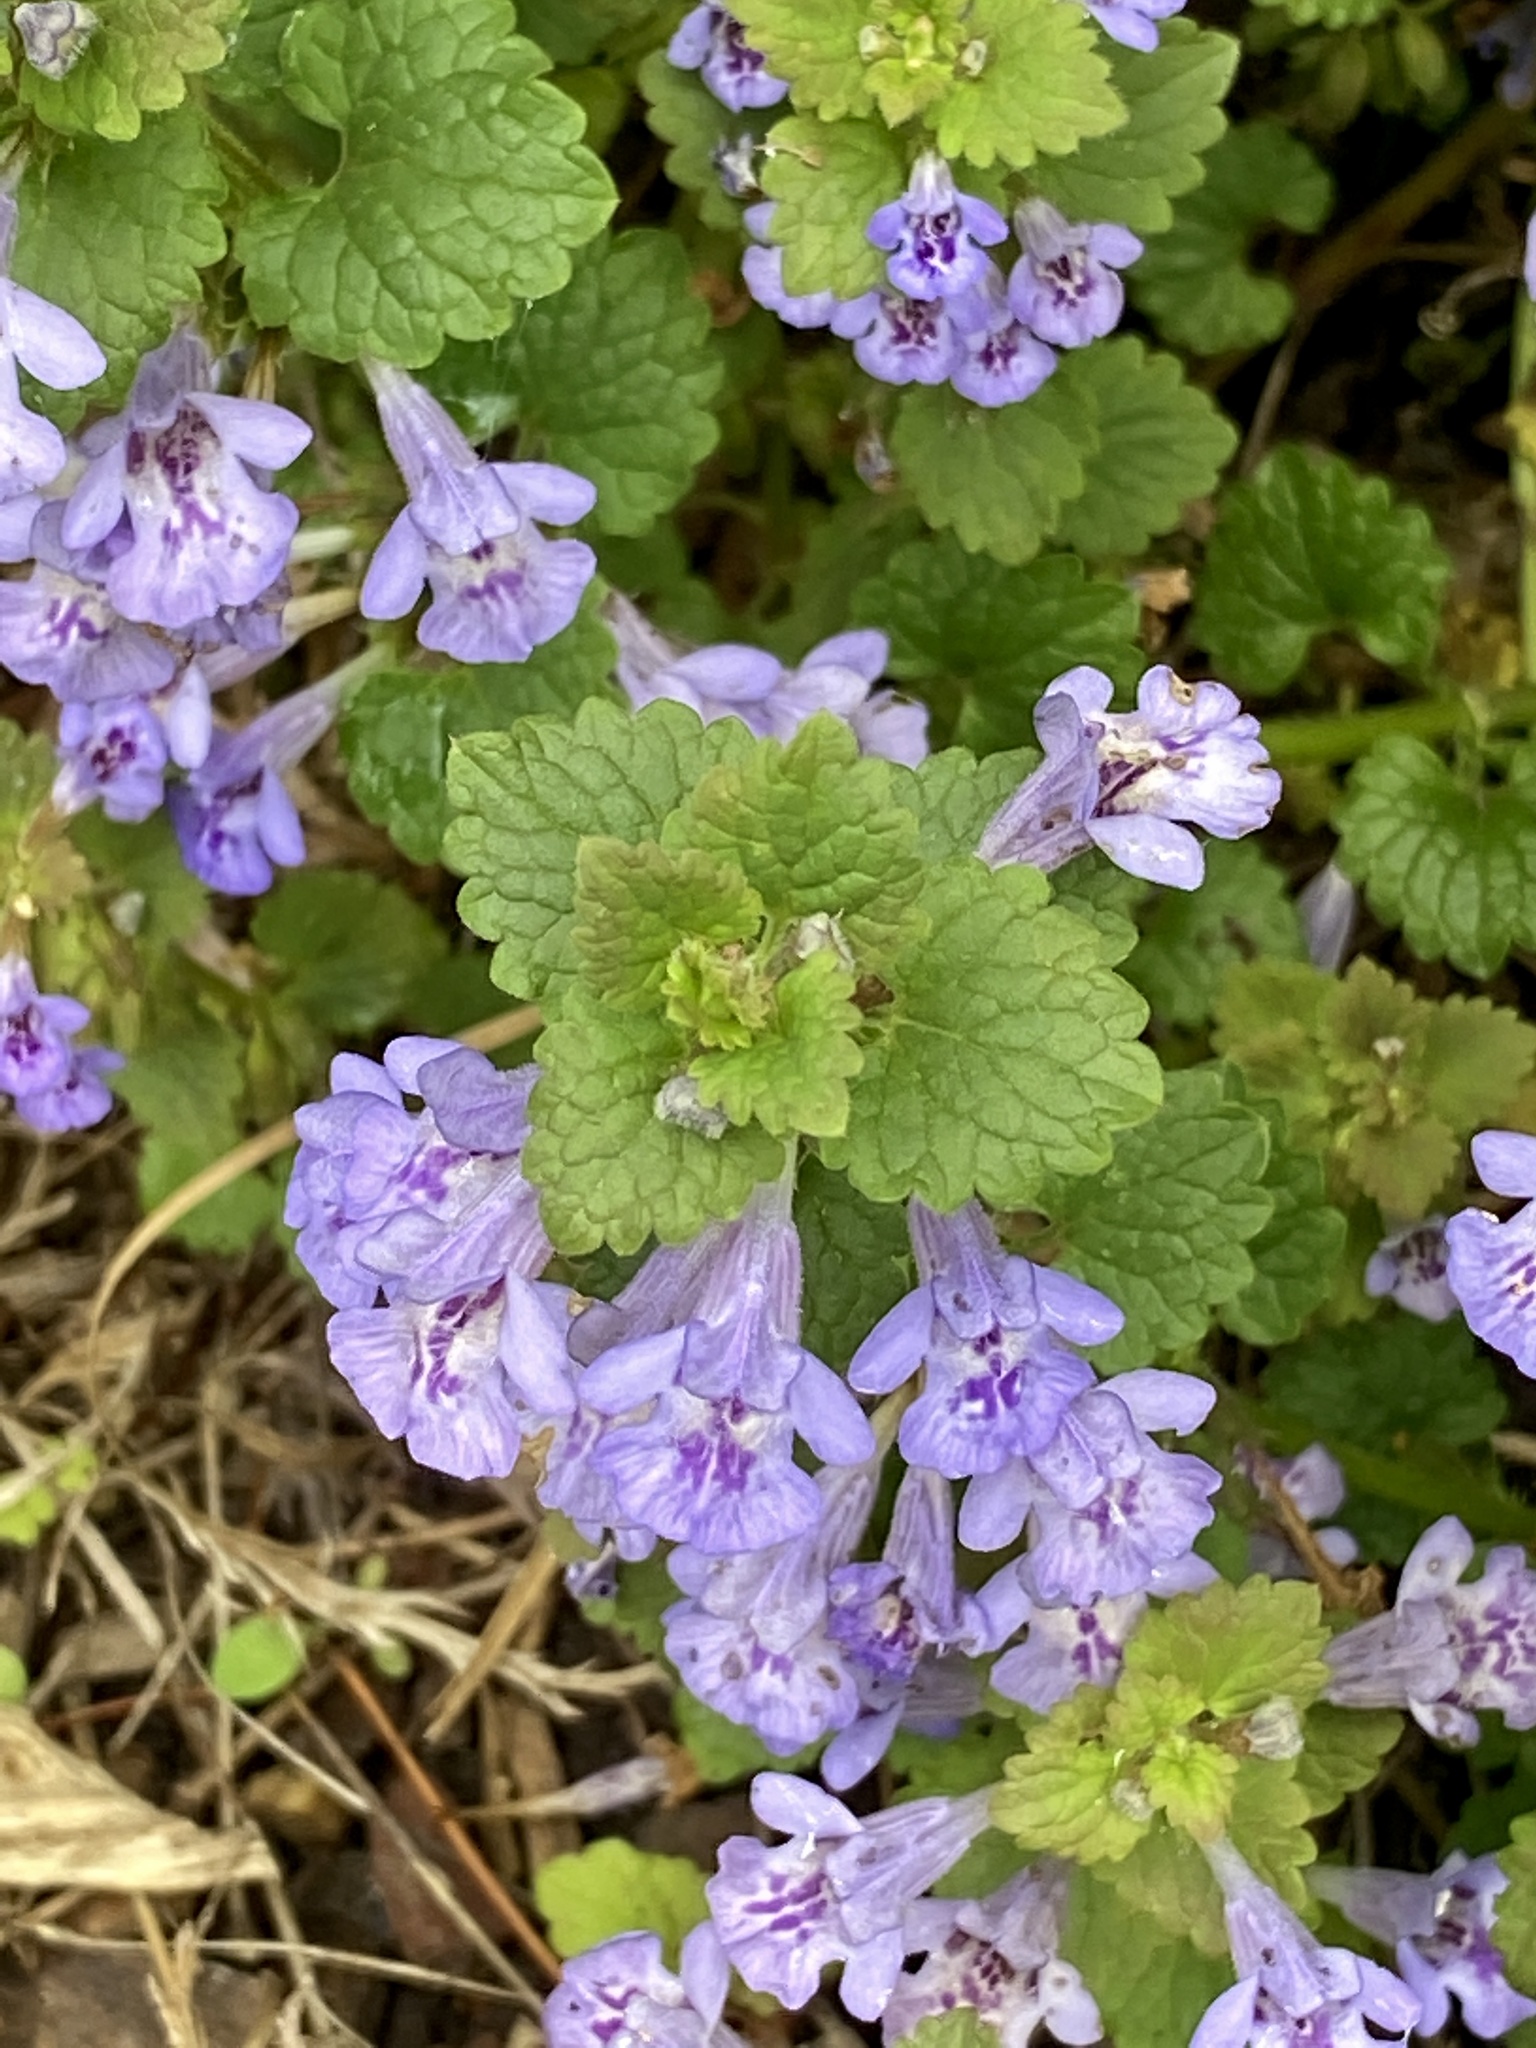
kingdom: Plantae
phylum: Tracheophyta
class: Magnoliopsida
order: Lamiales
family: Lamiaceae
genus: Glechoma
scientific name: Glechoma hederacea
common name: Ground ivy
